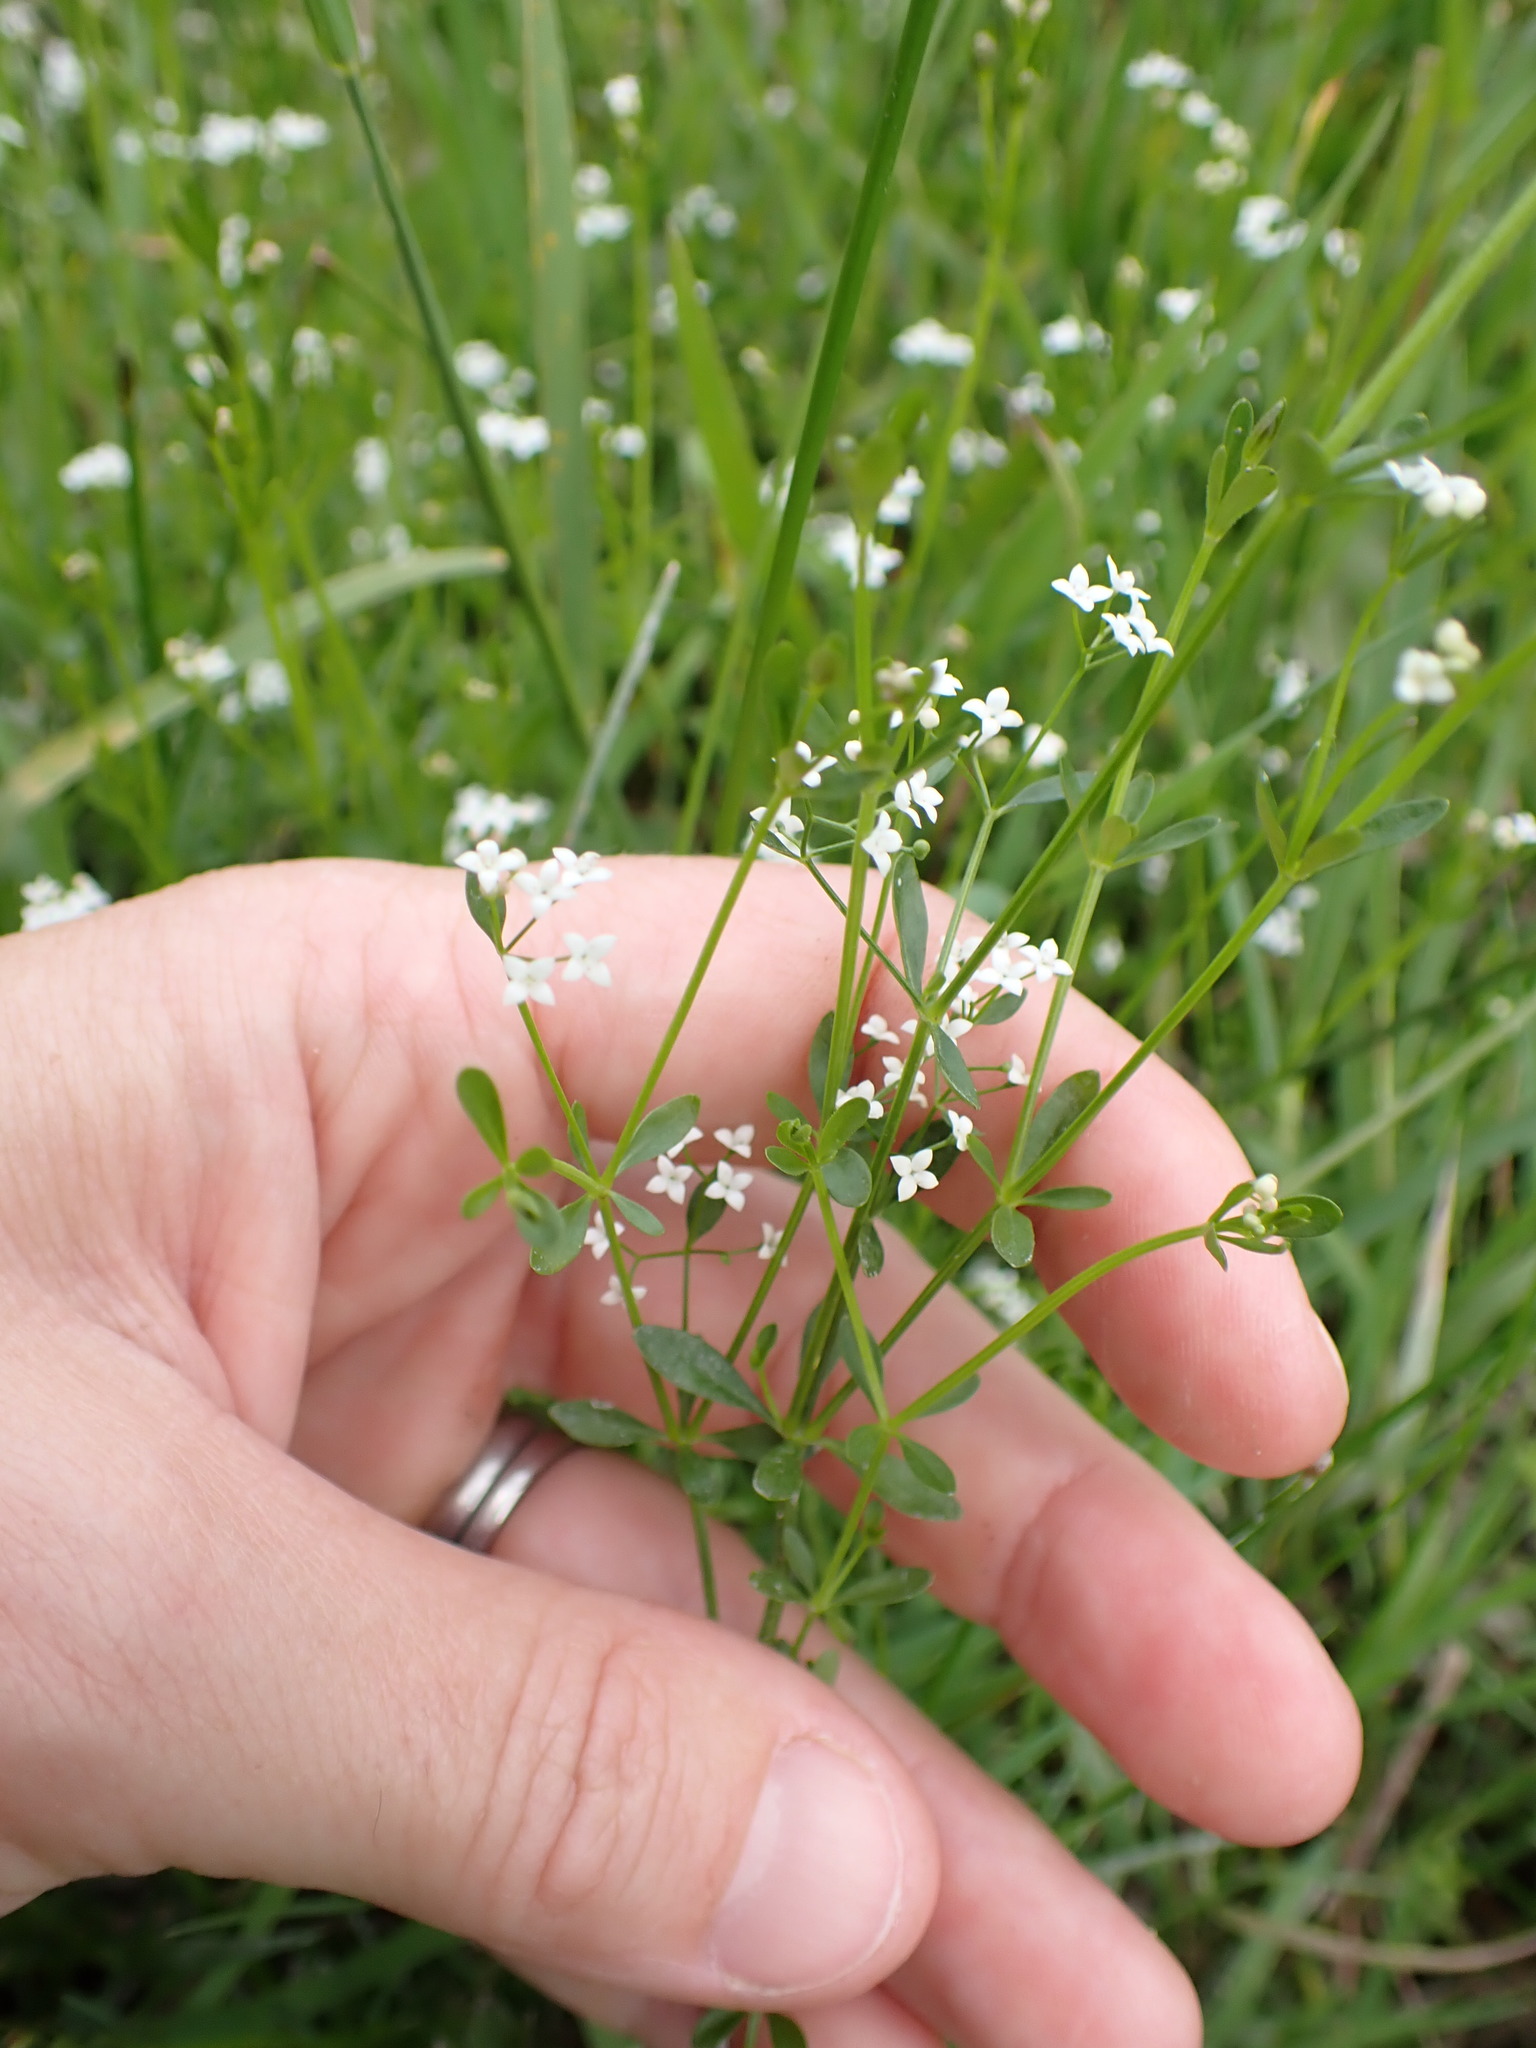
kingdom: Plantae
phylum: Tracheophyta
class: Magnoliopsida
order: Gentianales
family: Rubiaceae
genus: Galium
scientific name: Galium palustre
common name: Common marsh-bedstraw
